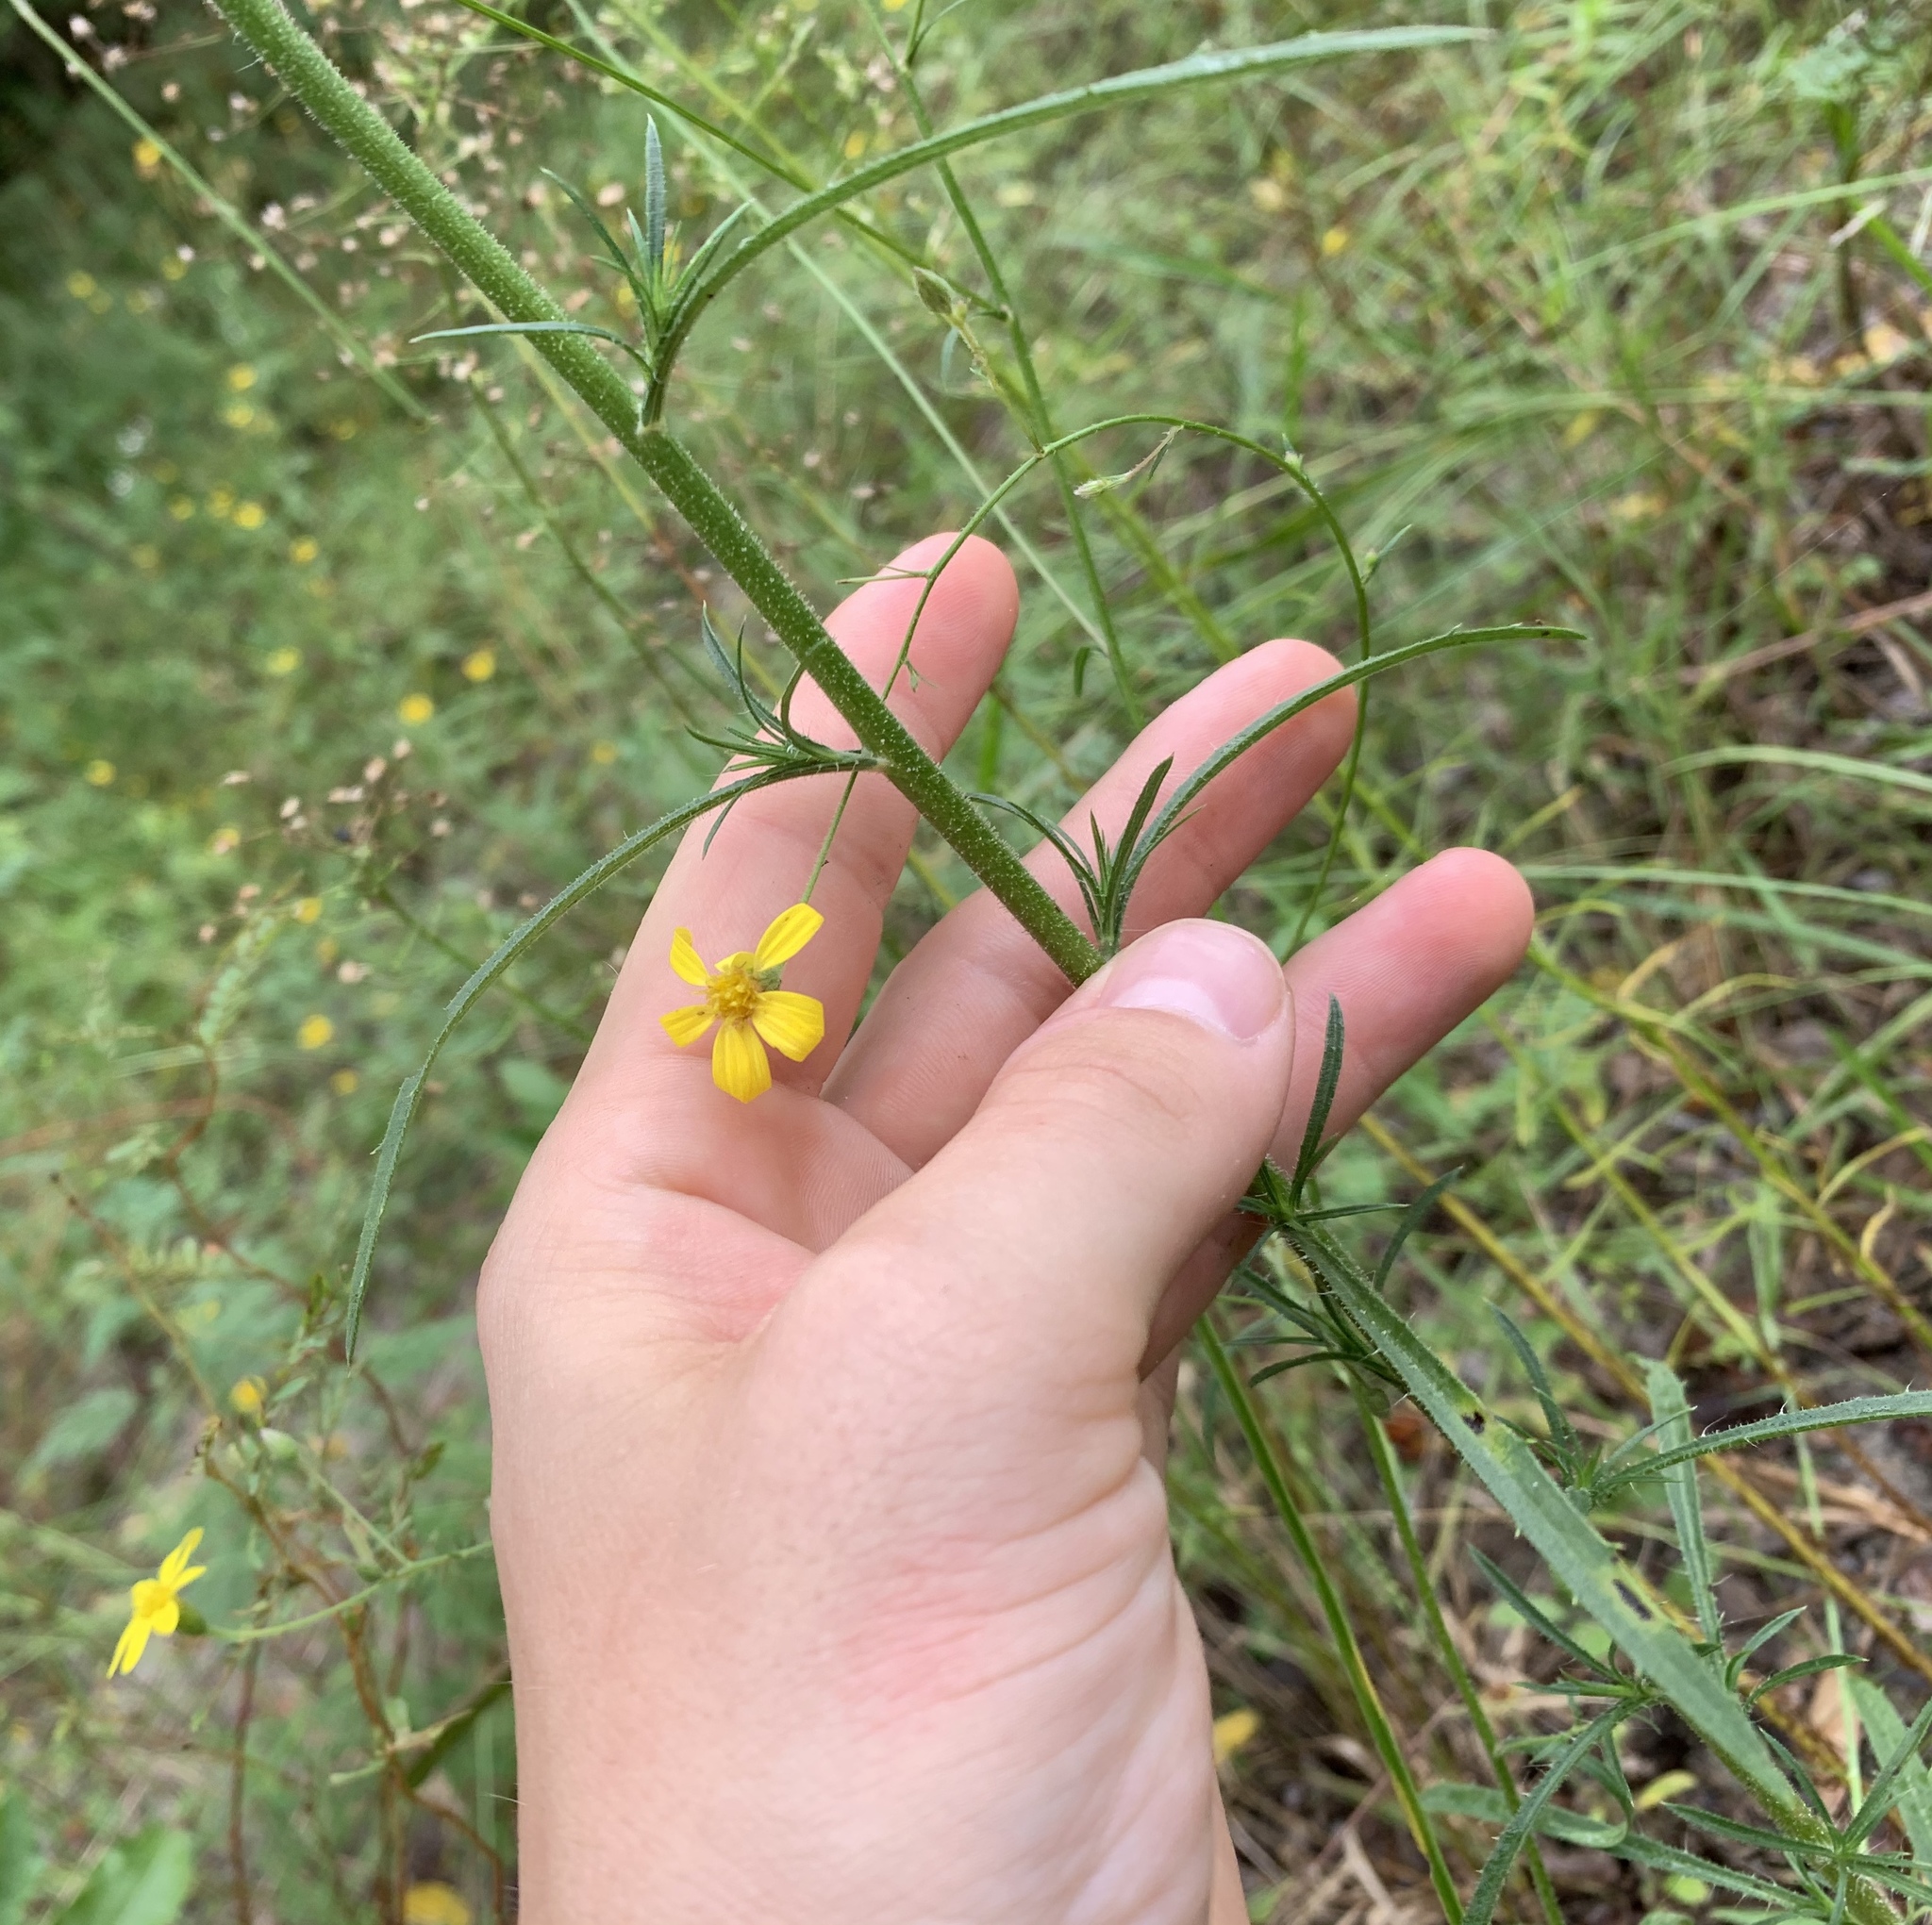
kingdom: Plantae
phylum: Tracheophyta
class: Magnoliopsida
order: Asterales
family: Asteraceae
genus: Croptilon
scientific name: Croptilon divaricatum
